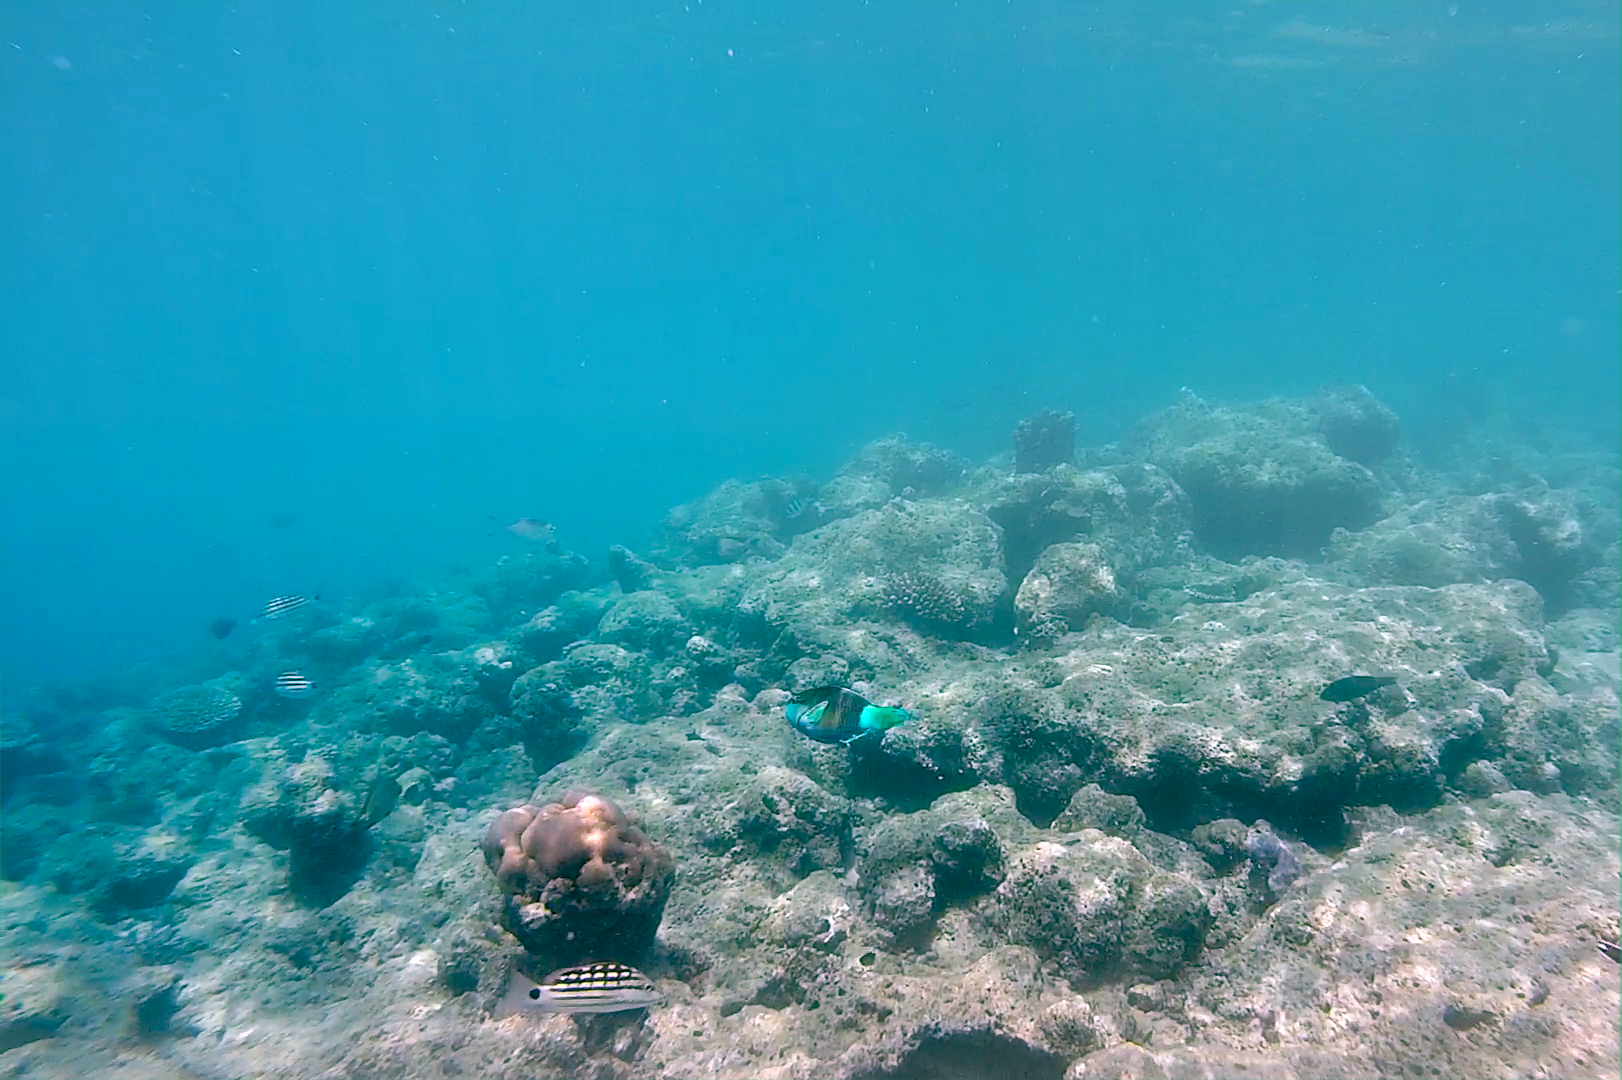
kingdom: Animalia
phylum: Chordata
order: Perciformes
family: Scaridae
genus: Scarus
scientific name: Scarus frenatus
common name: Bridled parrotfish
